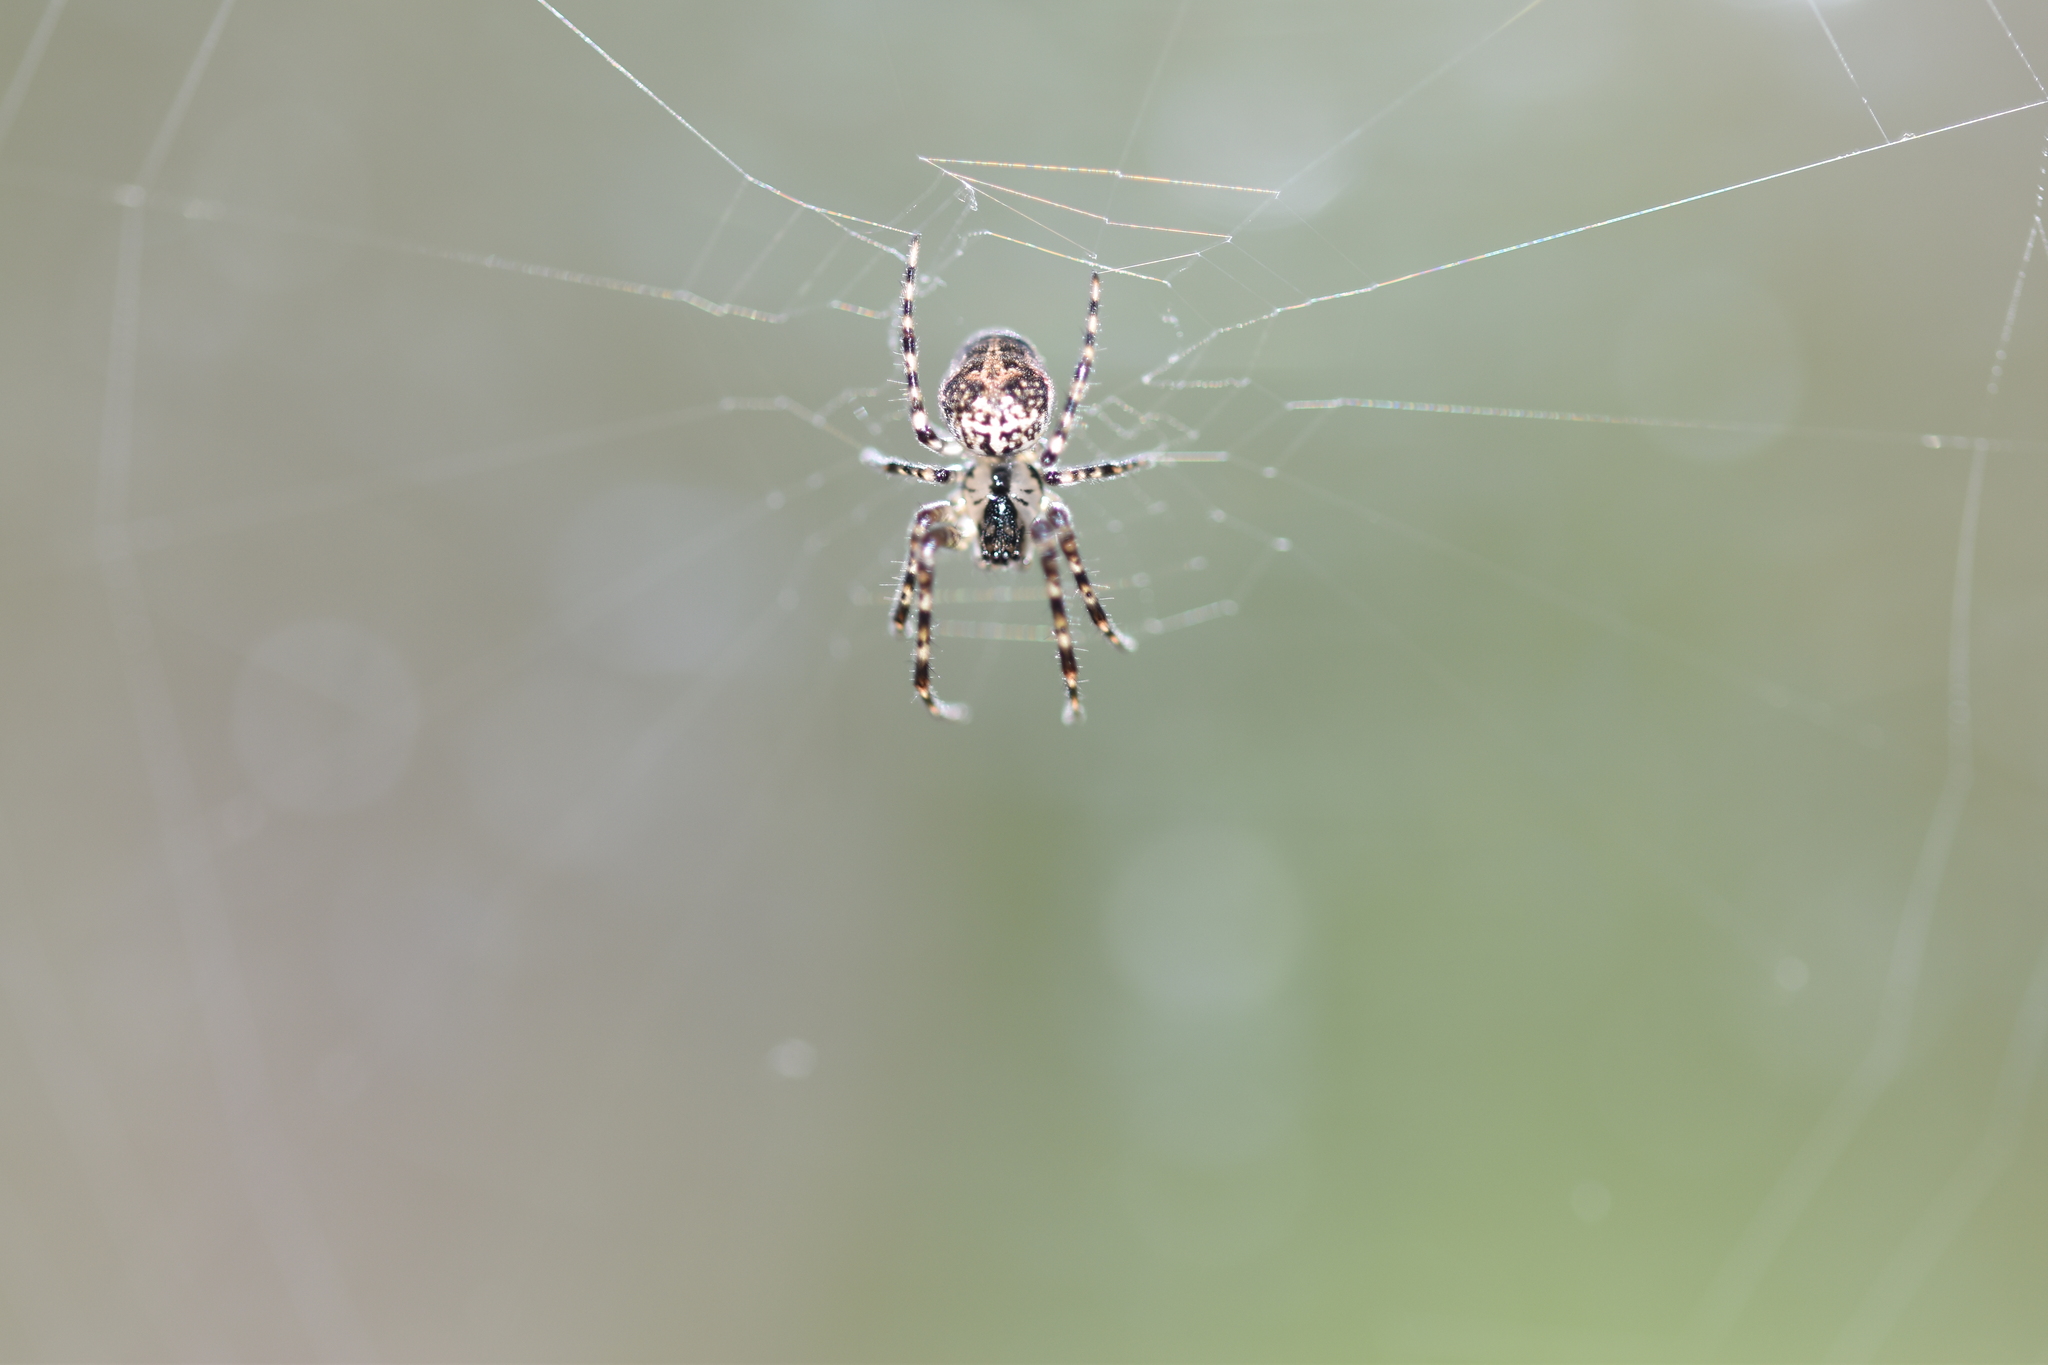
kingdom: Animalia
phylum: Arthropoda
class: Arachnida
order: Araneae
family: Tetragnathidae
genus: Metellina
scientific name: Metellina merianae
